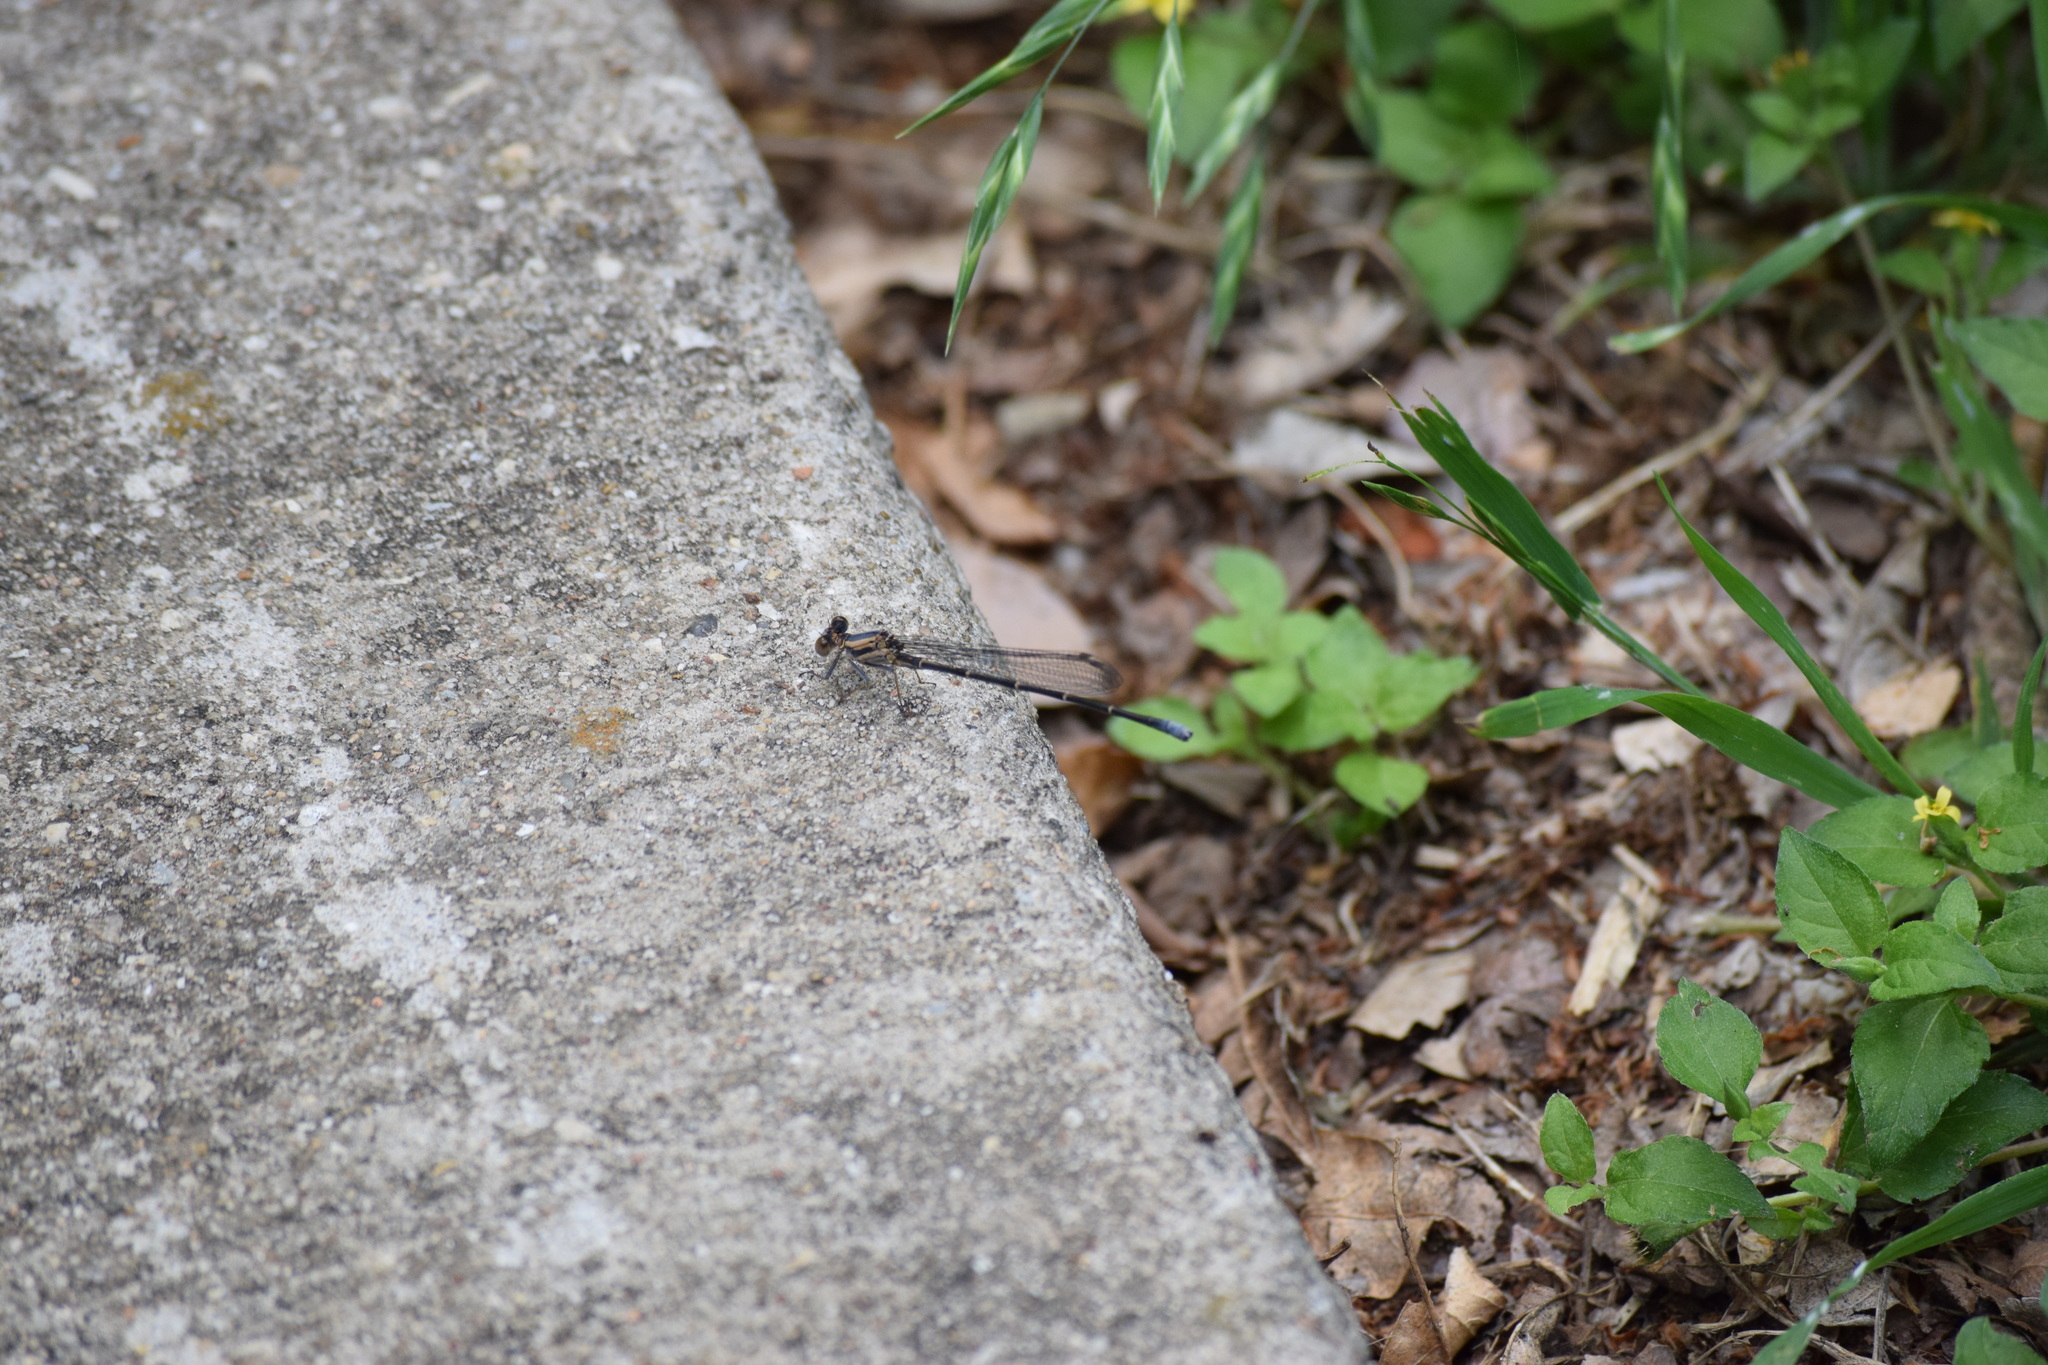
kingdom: Animalia
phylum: Arthropoda
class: Insecta
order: Odonata
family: Coenagrionidae
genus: Argia
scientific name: Argia moesta
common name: Powdered dancer
